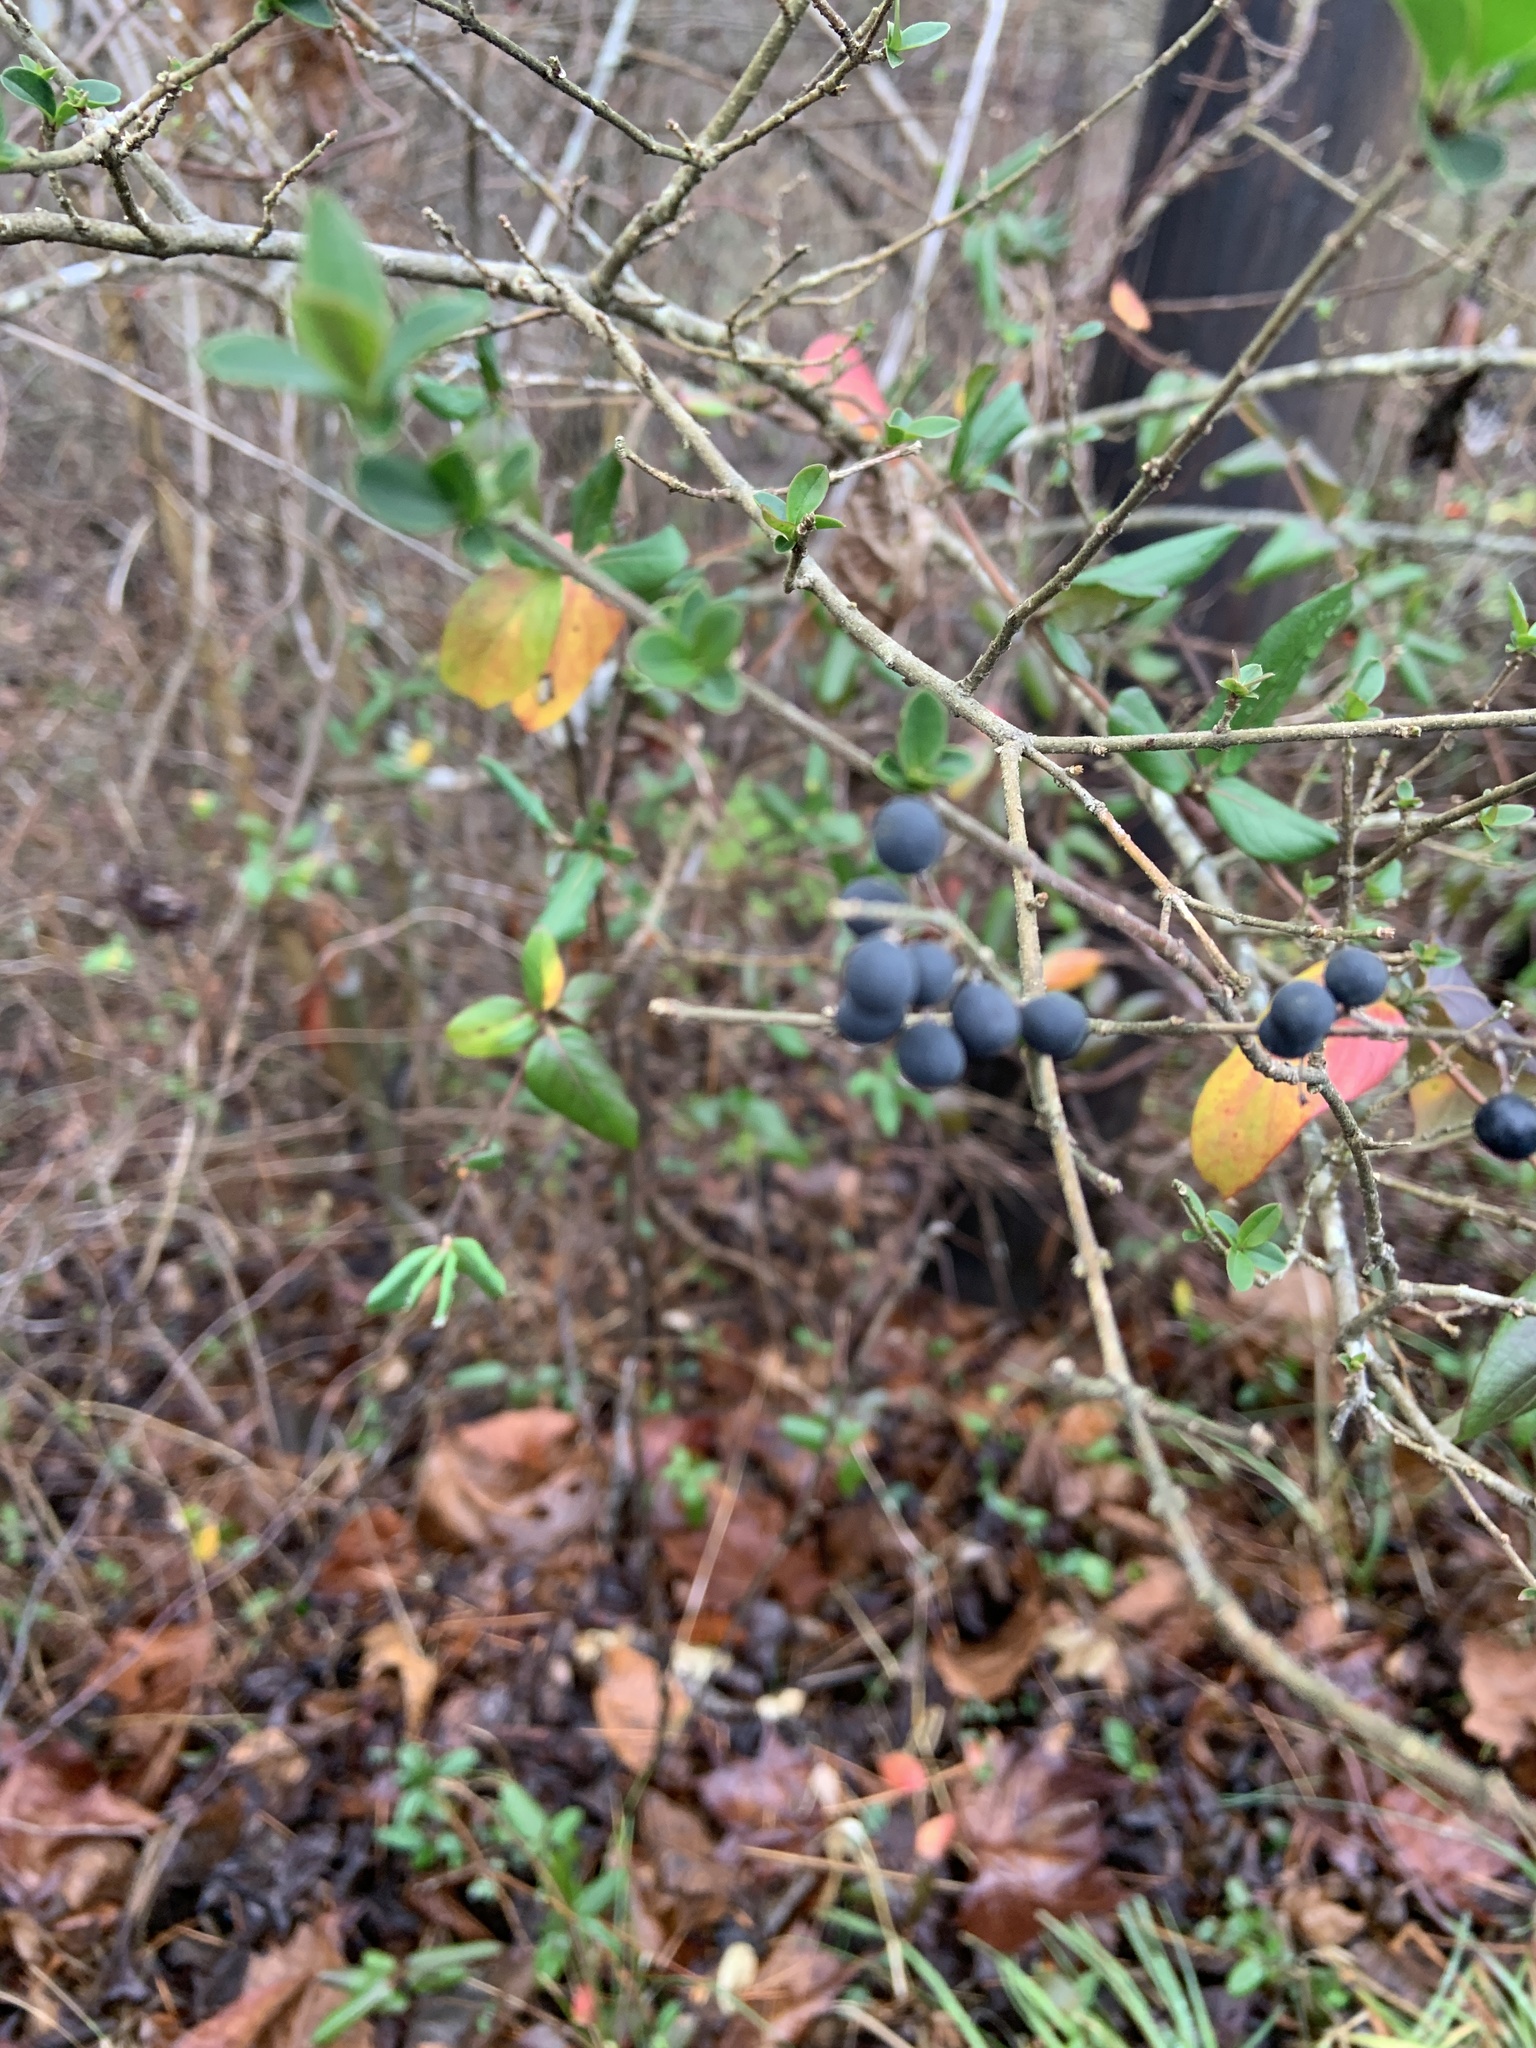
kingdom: Plantae
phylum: Tracheophyta
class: Magnoliopsida
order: Lamiales
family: Oleaceae
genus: Ligustrum
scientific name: Ligustrum sinense
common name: Chinese privet
